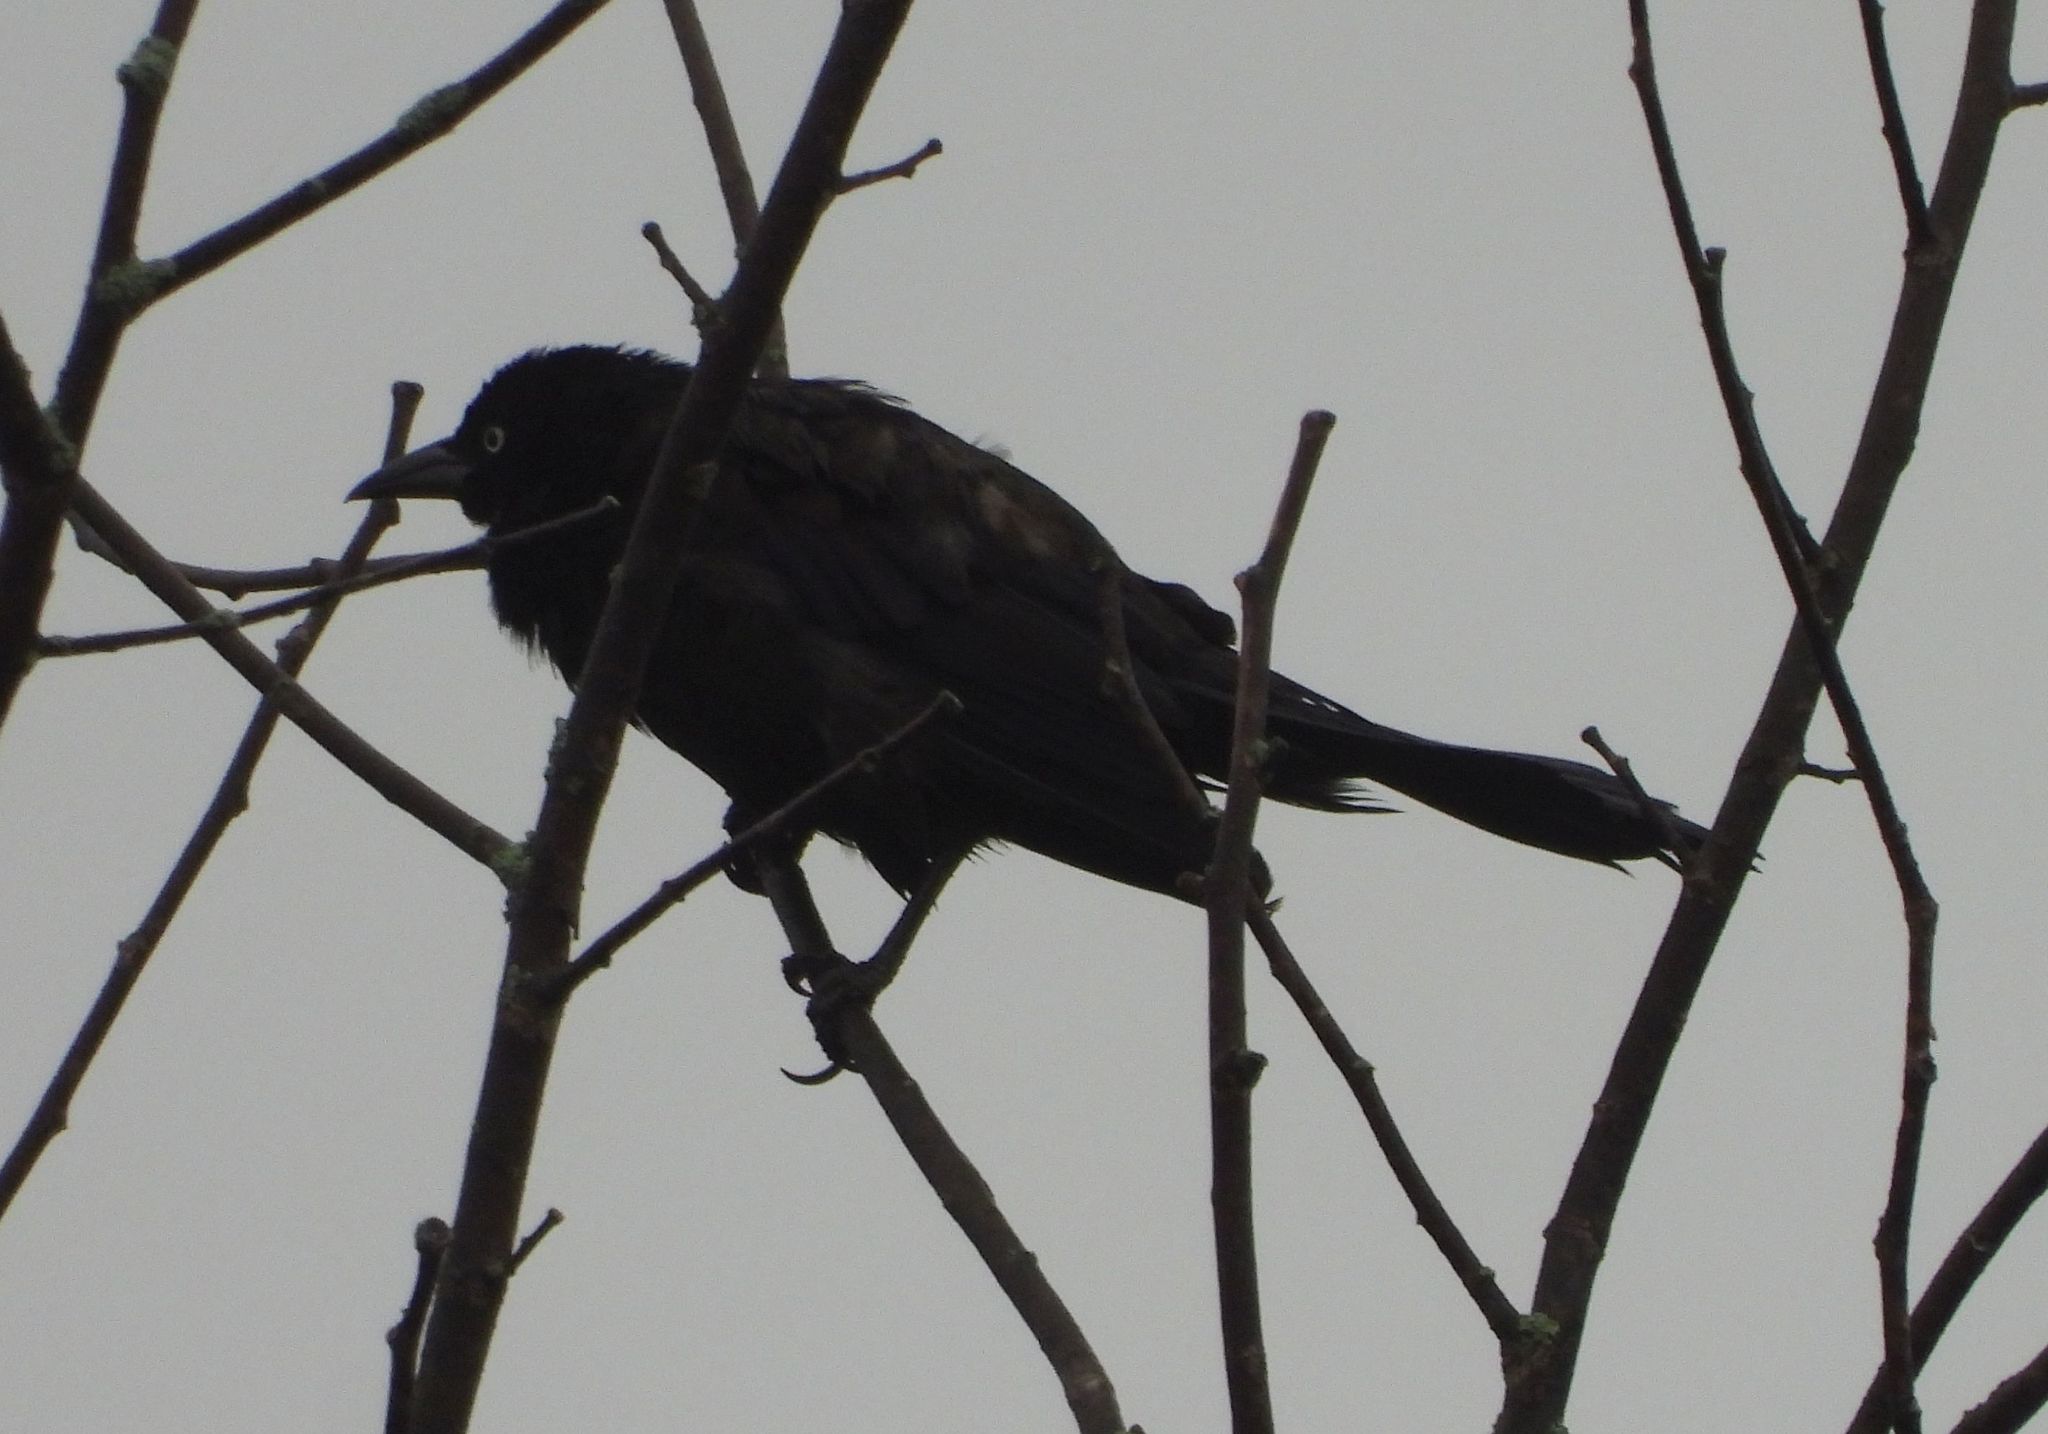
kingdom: Animalia
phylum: Chordata
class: Aves
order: Passeriformes
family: Icteridae
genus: Quiscalus
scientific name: Quiscalus quiscula
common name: Common grackle
